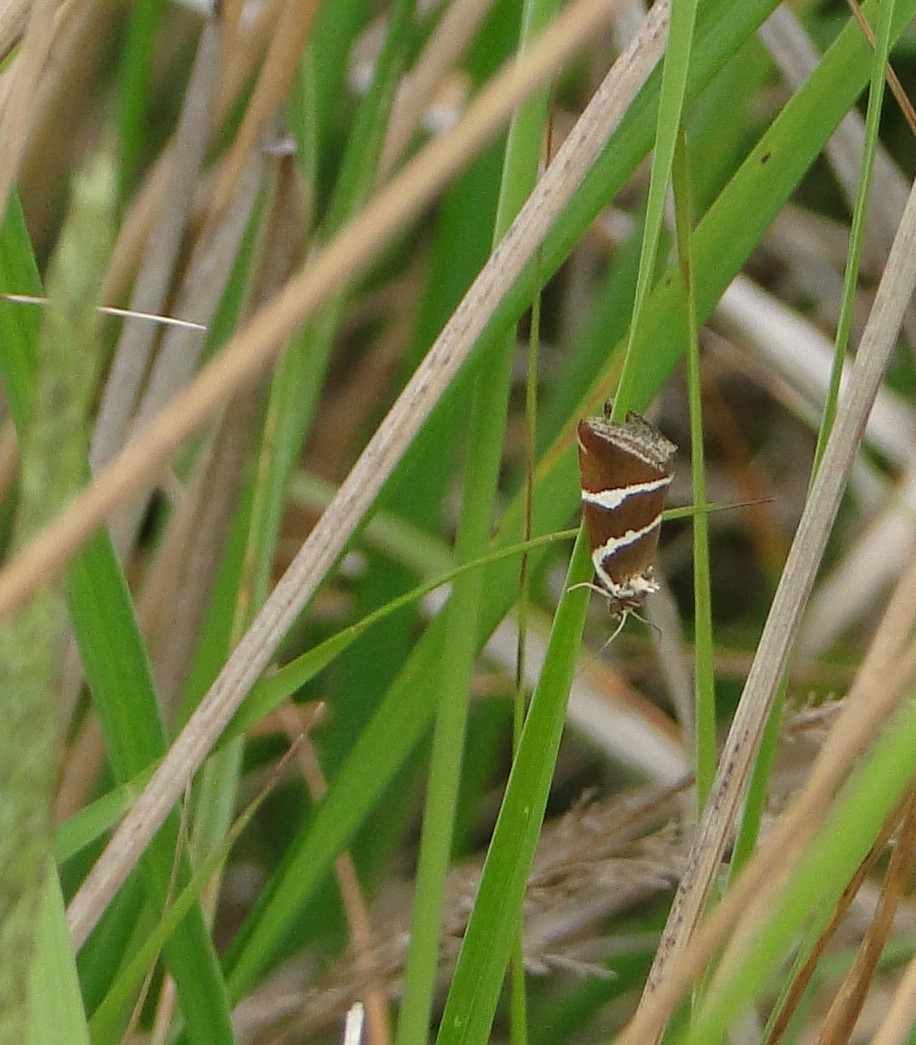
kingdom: Animalia
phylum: Arthropoda
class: Insecta
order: Lepidoptera
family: Noctuidae
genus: Deltote
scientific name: Deltote bankiana
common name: Silver barred
